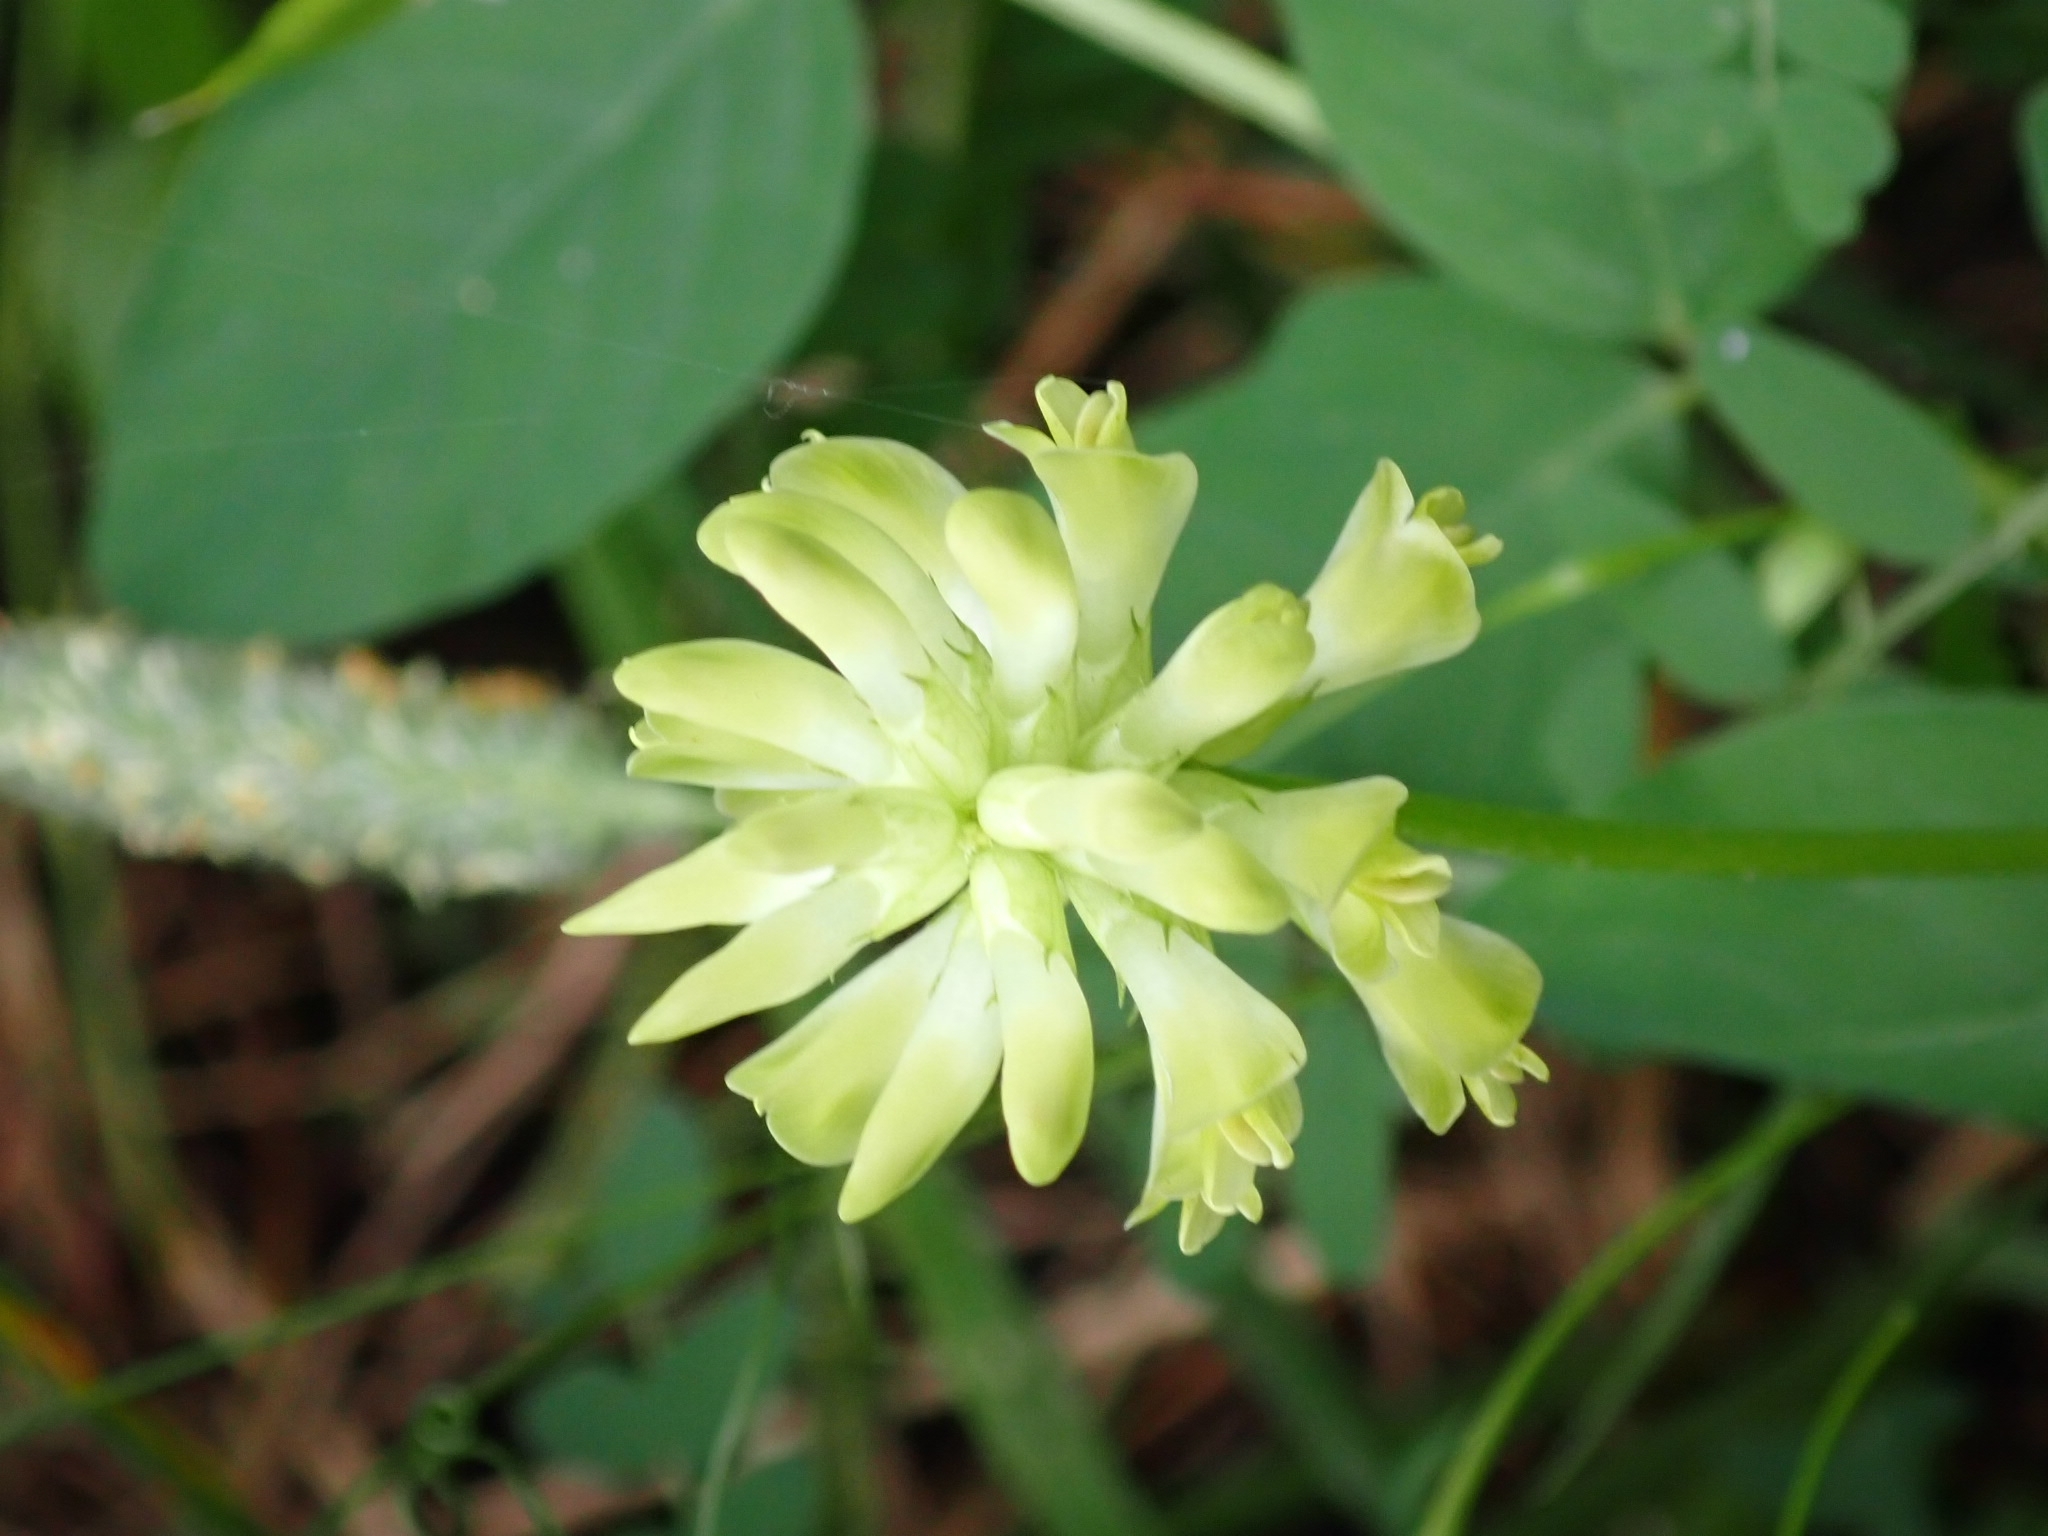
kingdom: Plantae
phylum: Tracheophyta
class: Magnoliopsida
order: Fabales
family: Fabaceae
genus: Astragalus
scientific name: Astragalus glycyphyllos
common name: Wild liquorice
